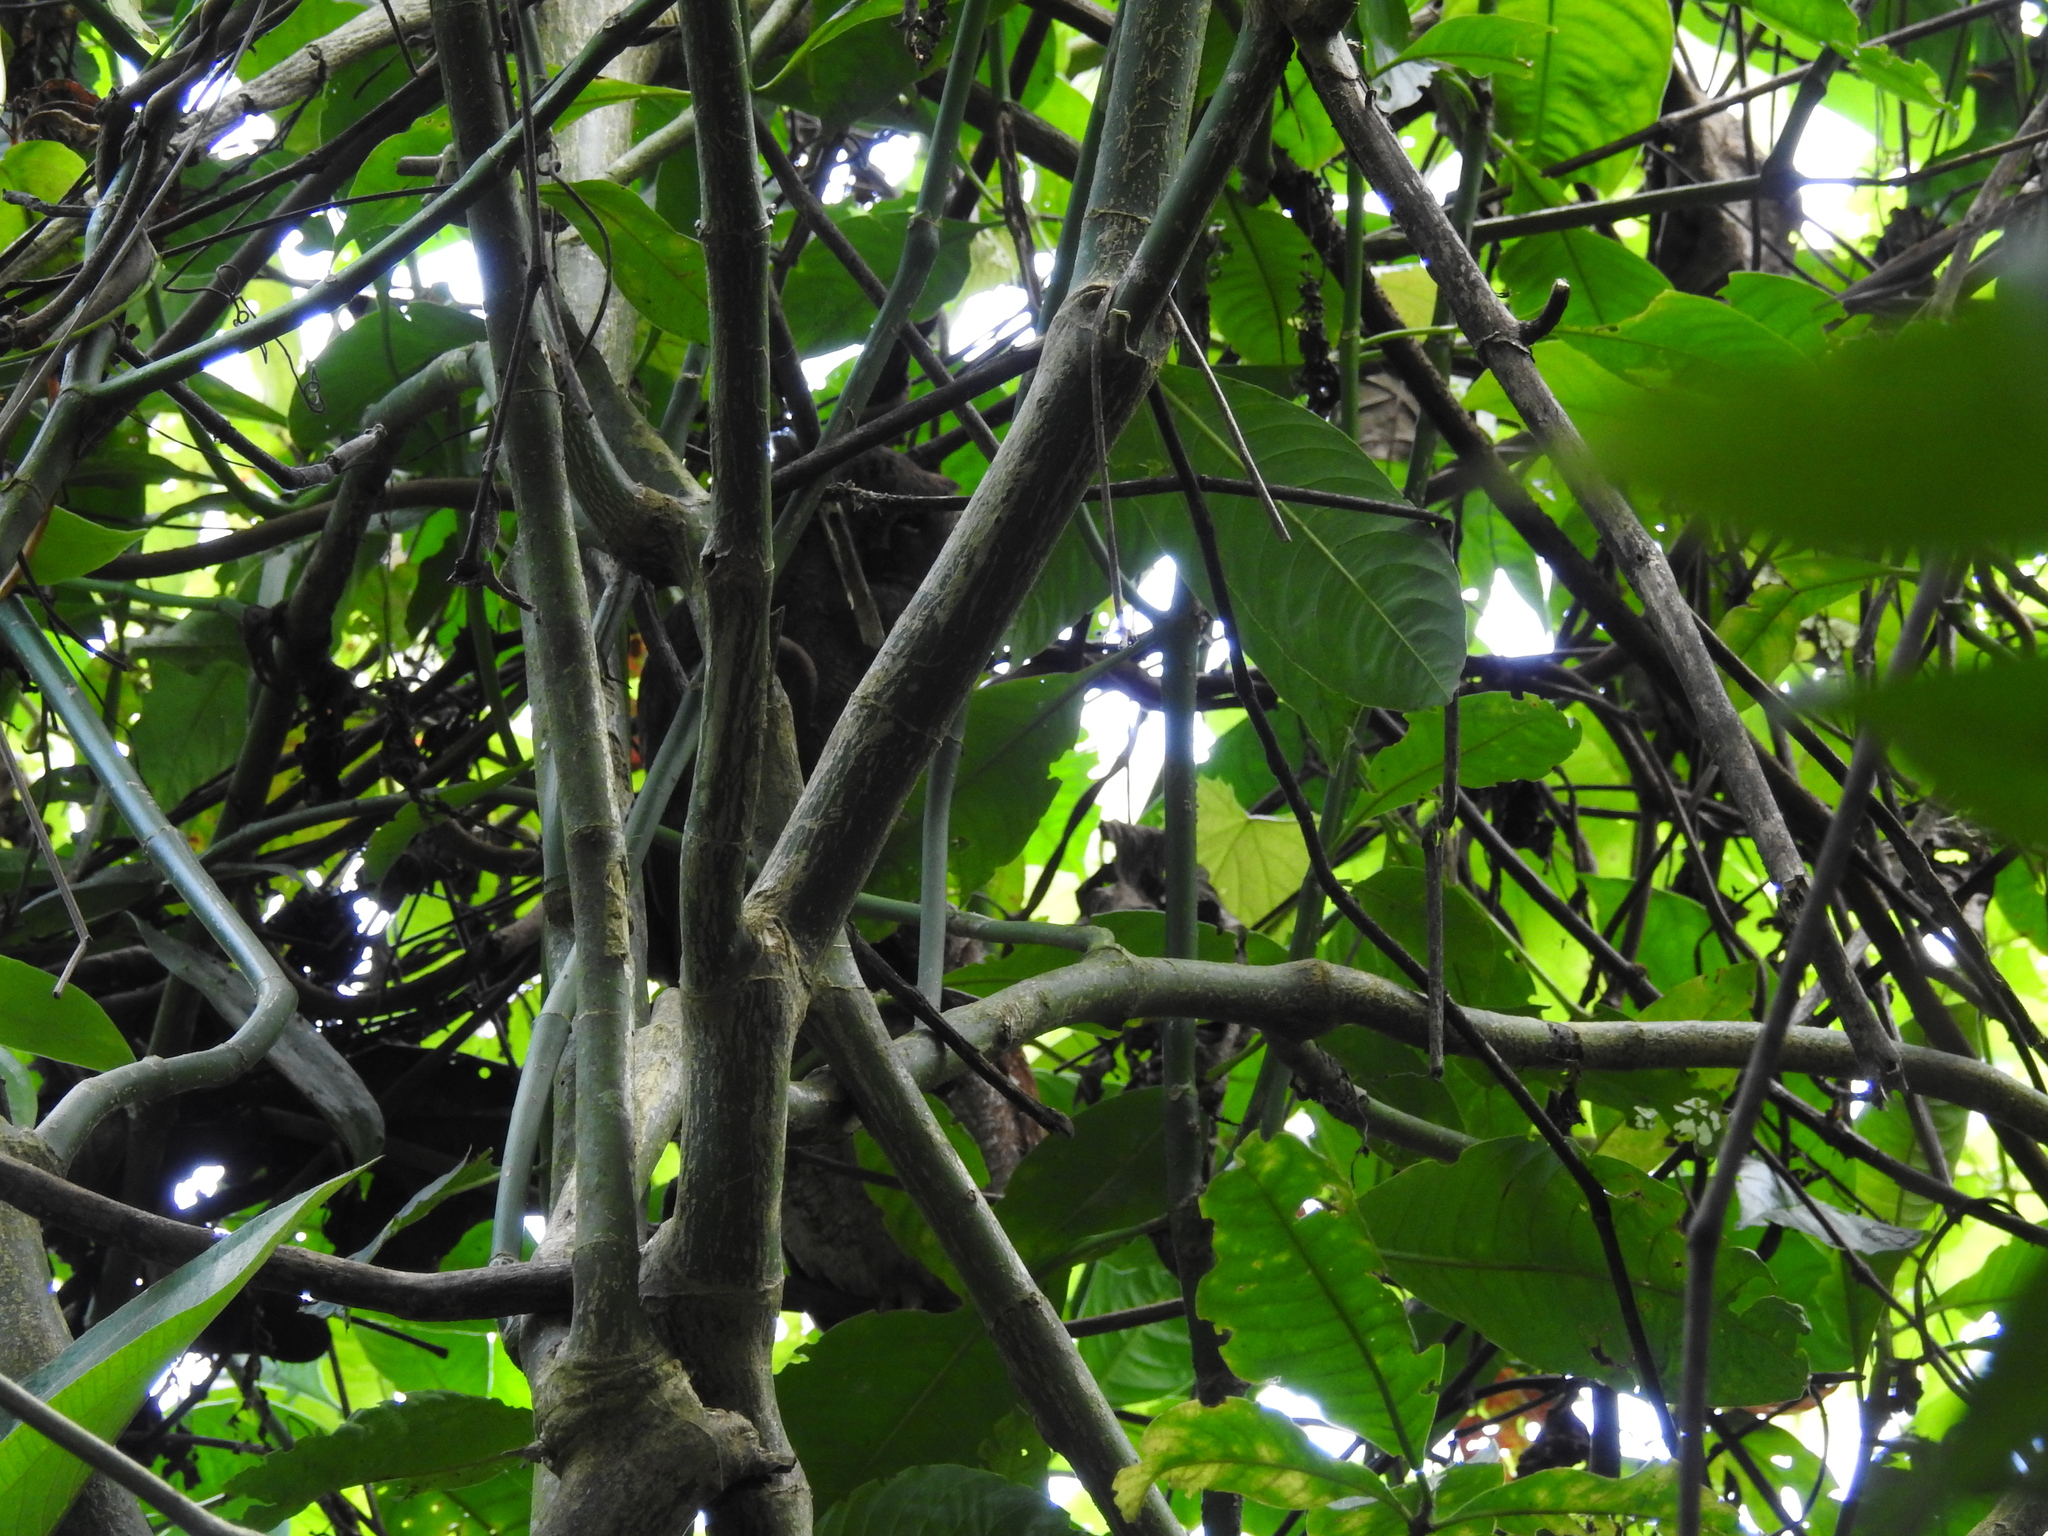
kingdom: Animalia
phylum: Chordata
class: Aves
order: Strigiformes
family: Strigidae
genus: Megascops
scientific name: Megascops guatemalae
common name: Vermiculated screech-owl
